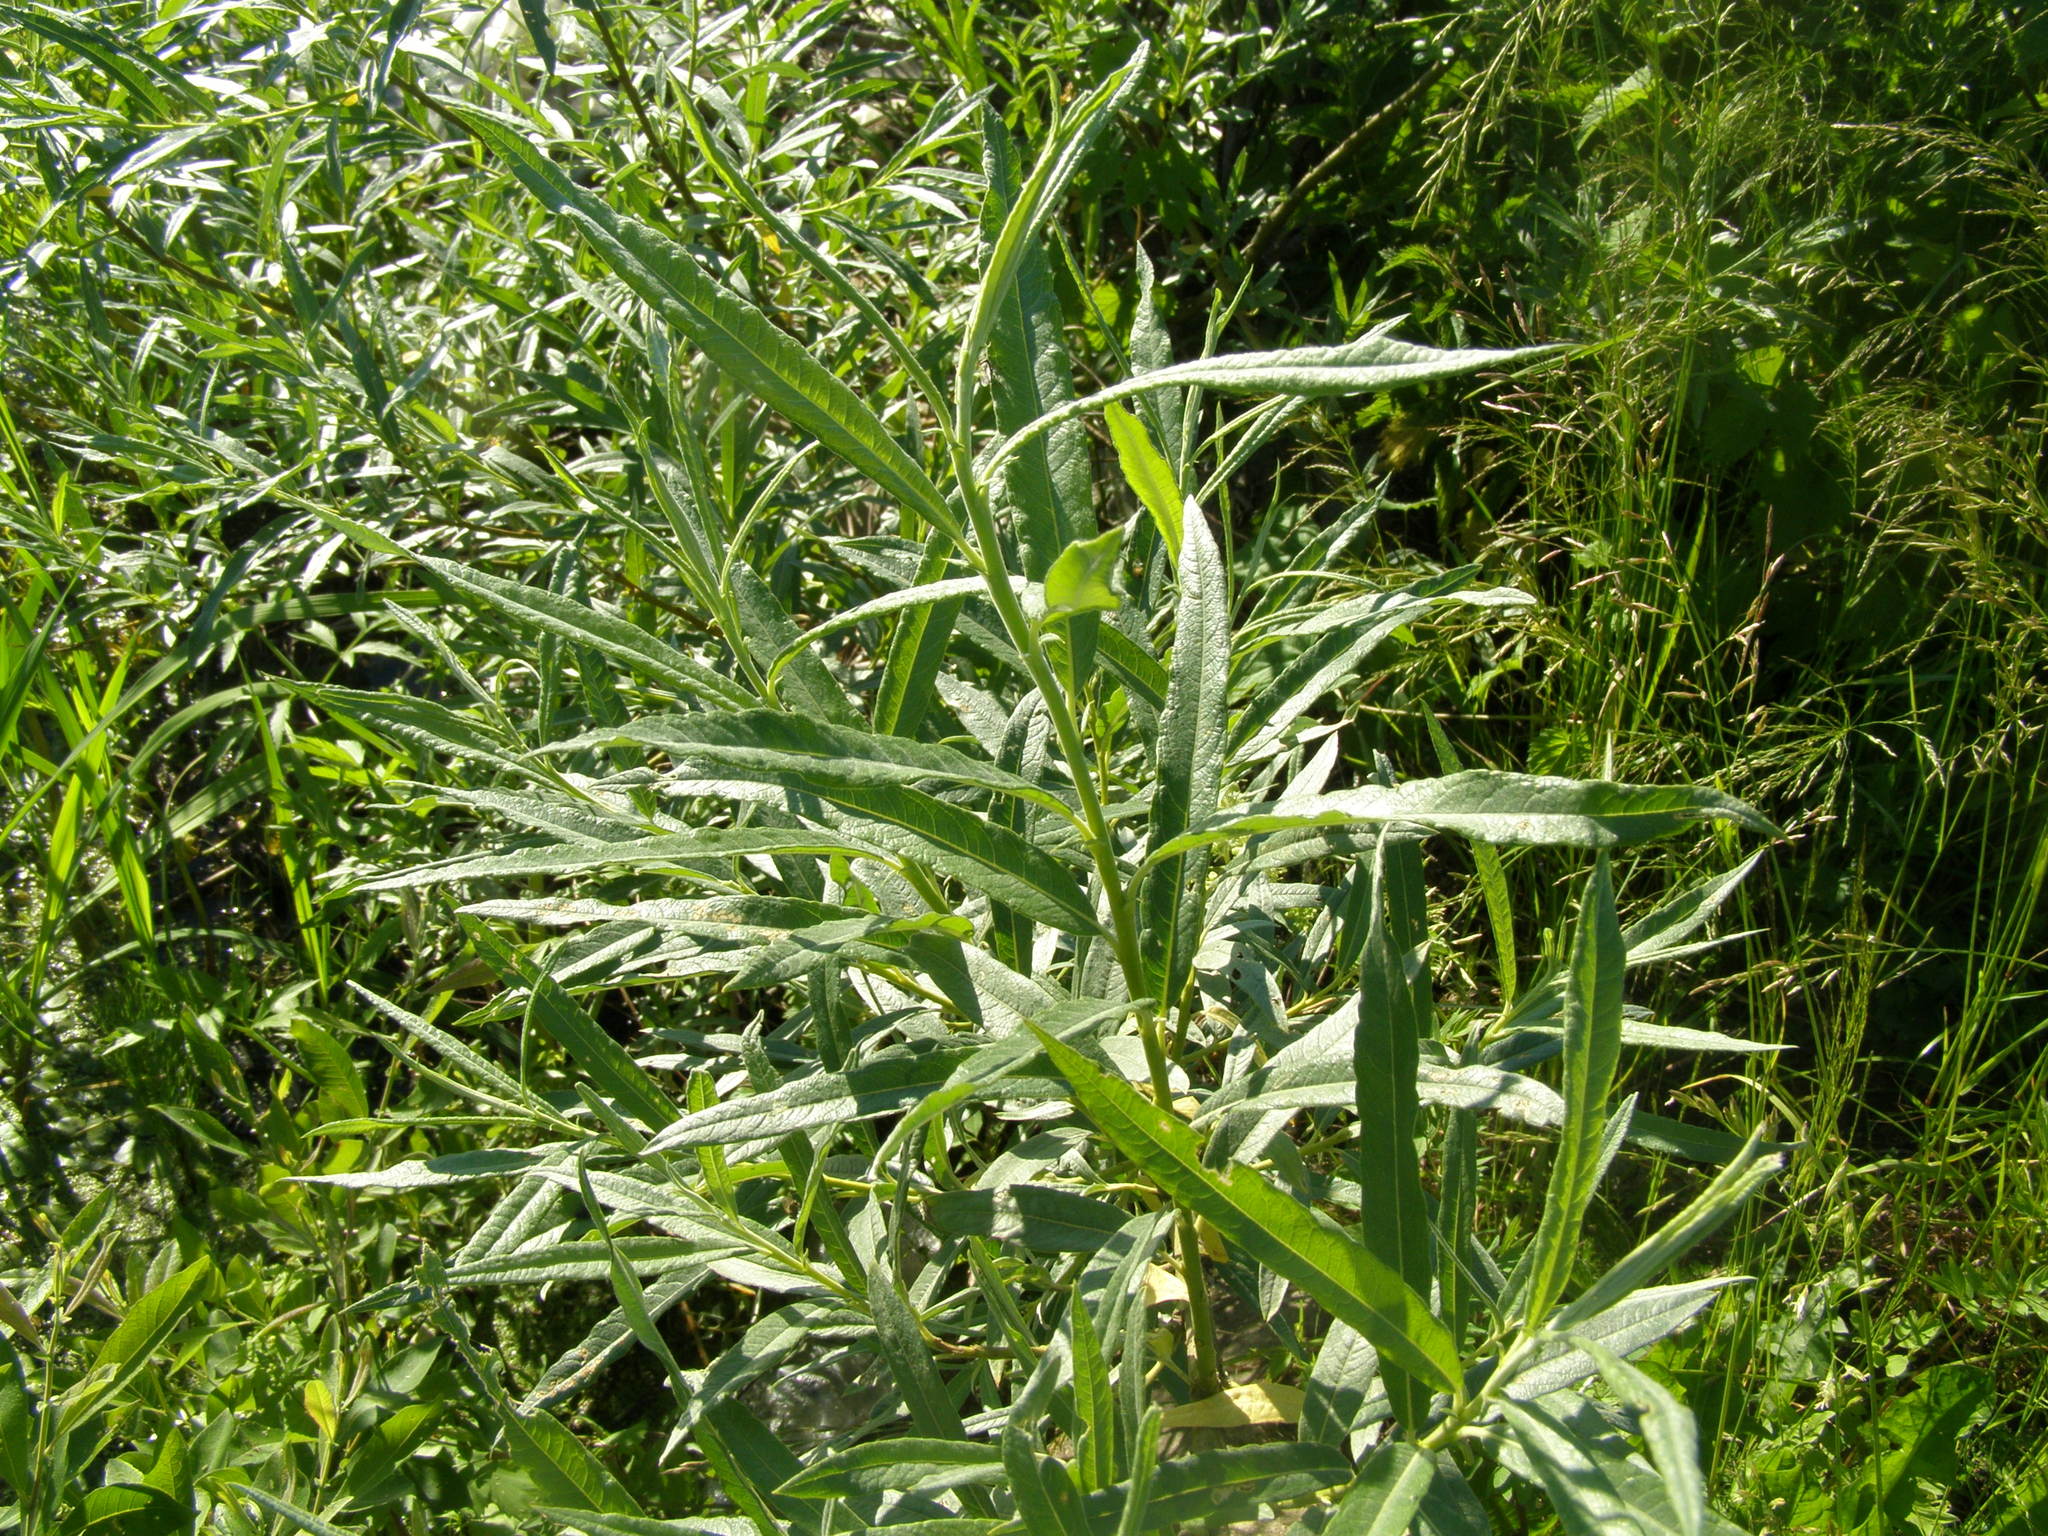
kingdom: Plantae
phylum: Tracheophyta
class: Magnoliopsida
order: Malpighiales
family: Salicaceae
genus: Salix
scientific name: Salix viminalis
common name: Osier
